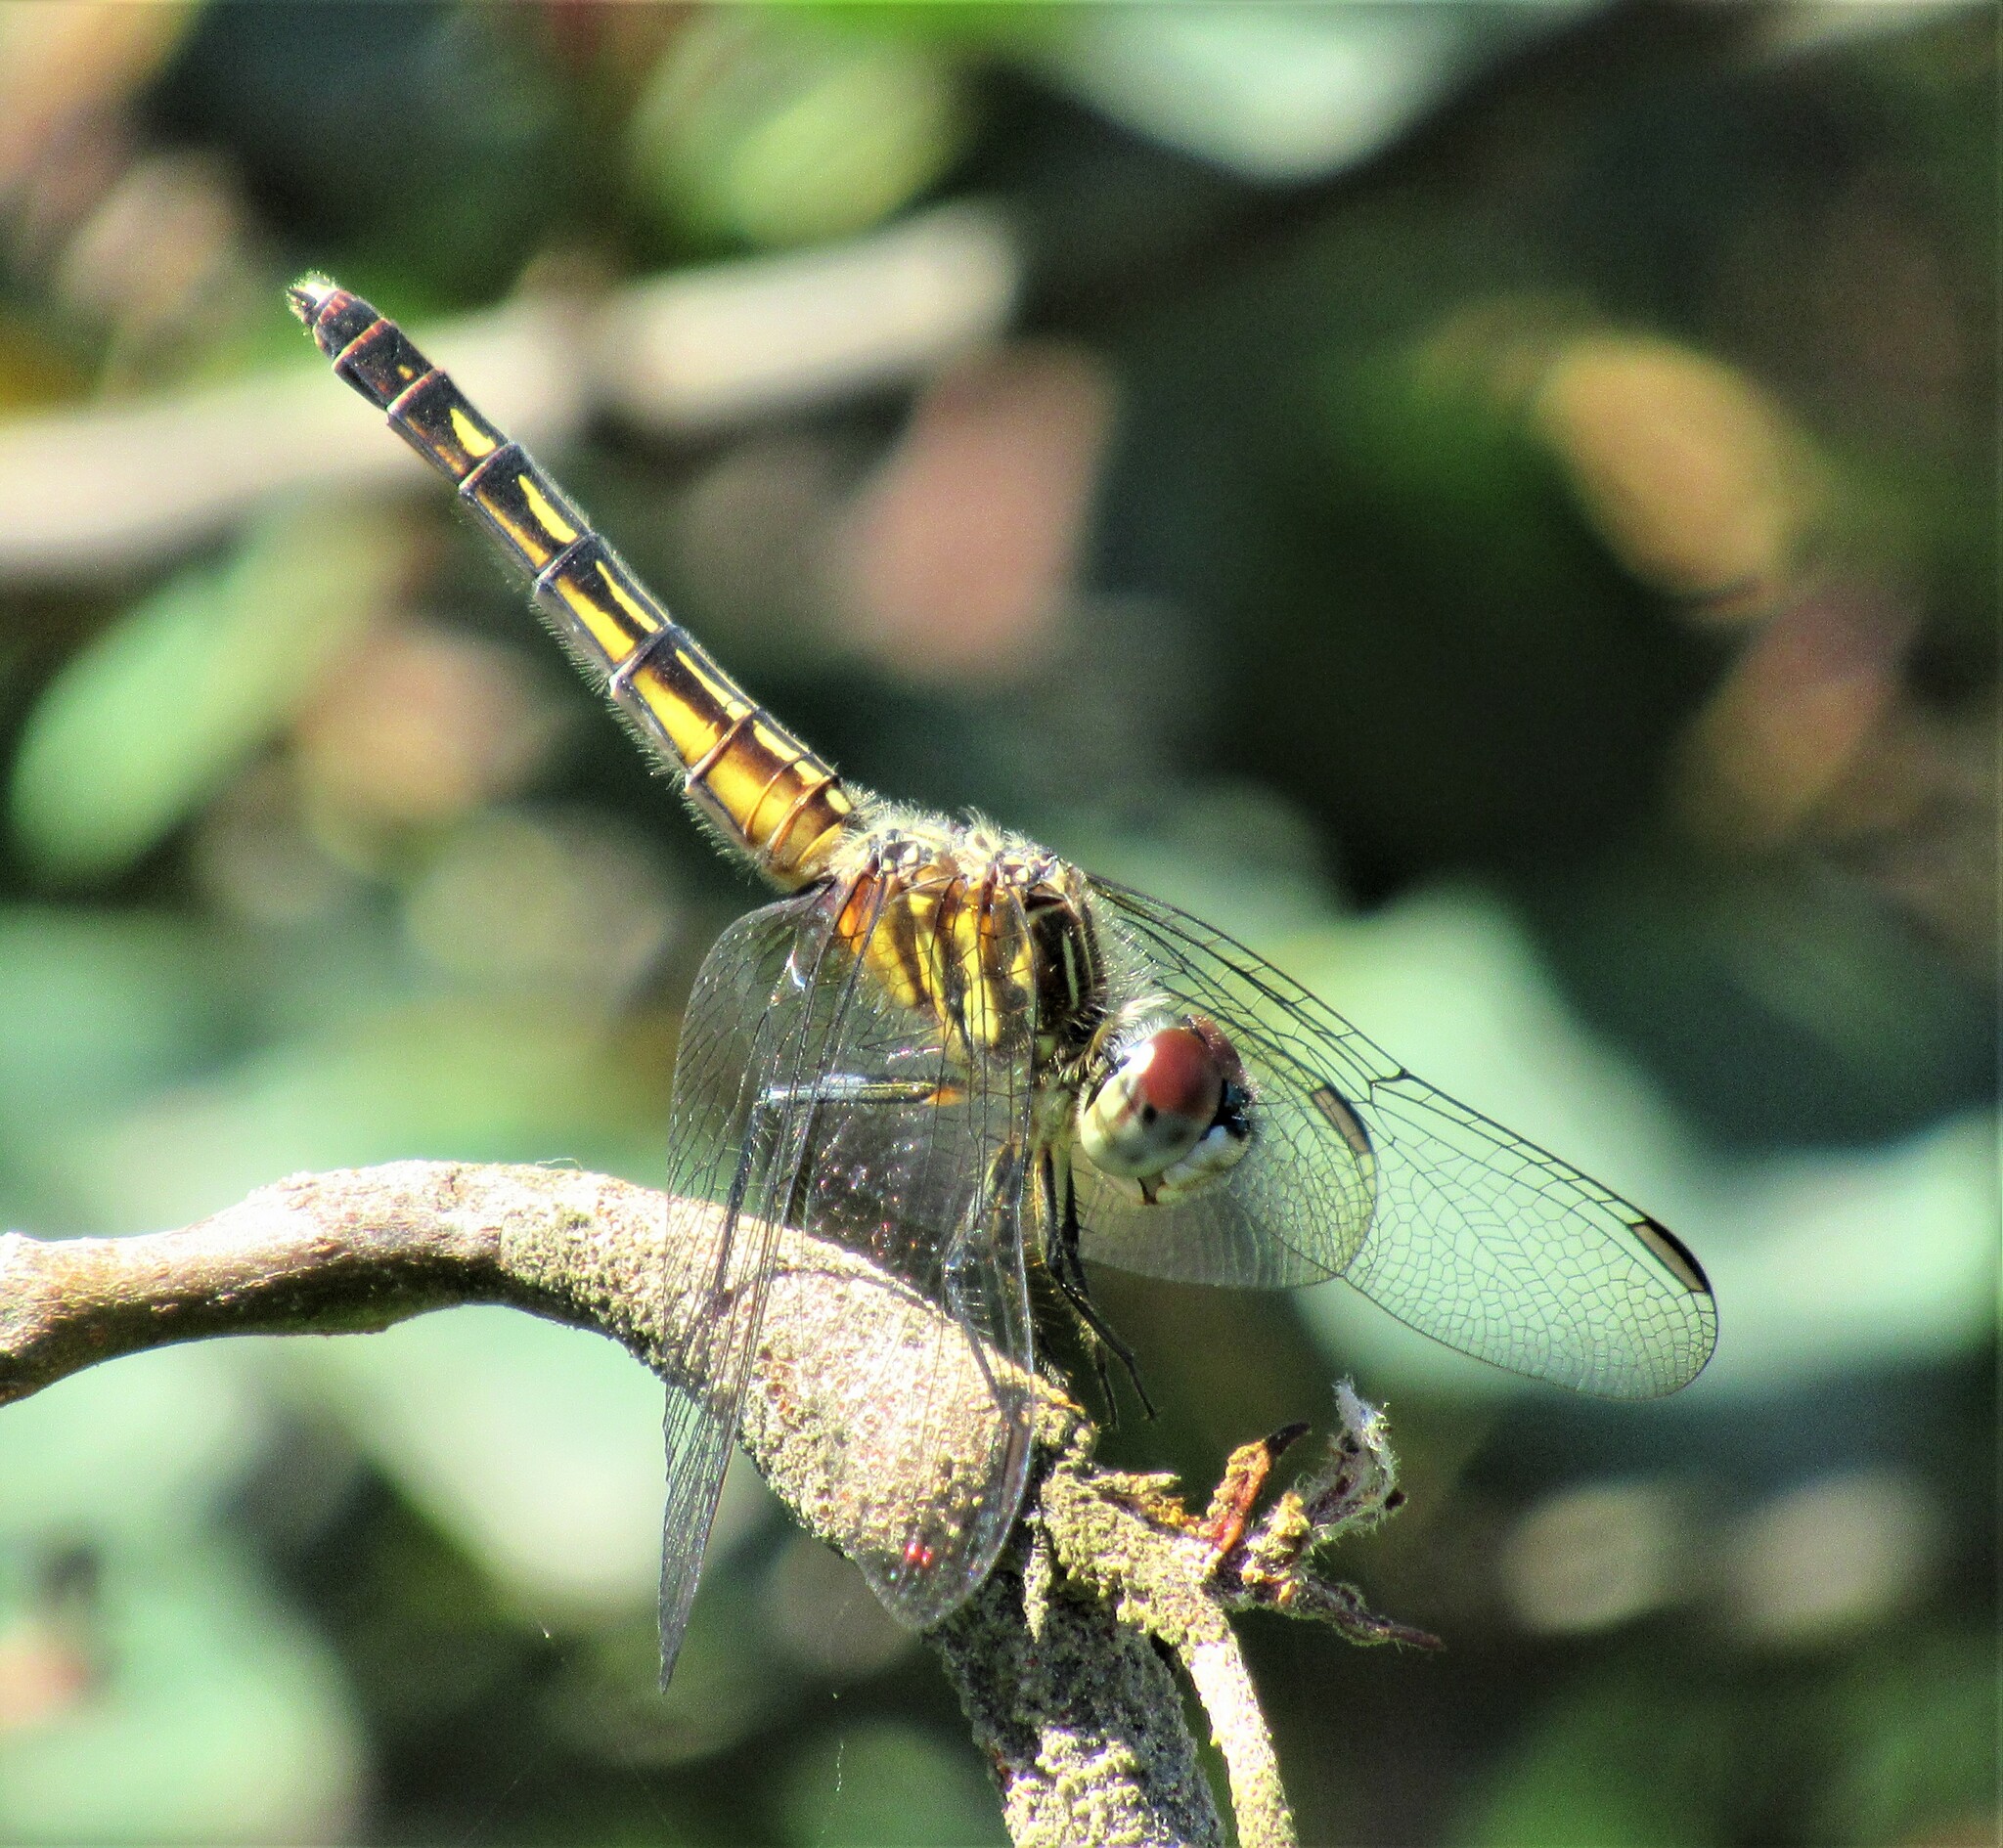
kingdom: Animalia
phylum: Arthropoda
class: Insecta
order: Odonata
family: Libellulidae
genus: Pachydiplax
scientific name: Pachydiplax longipennis
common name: Blue dasher
